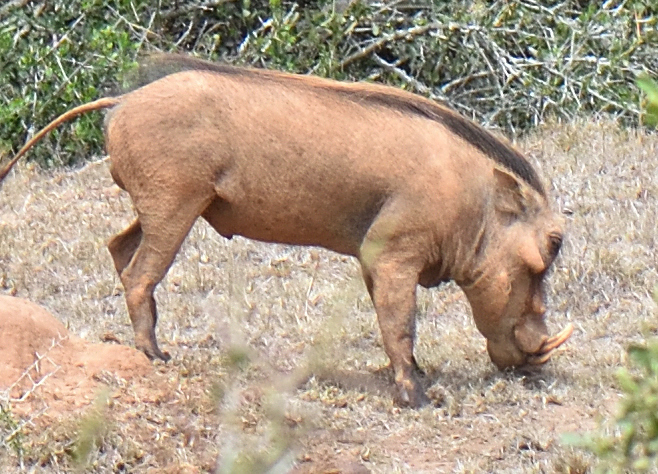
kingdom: Animalia
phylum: Chordata
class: Mammalia
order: Artiodactyla
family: Suidae
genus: Phacochoerus
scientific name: Phacochoerus africanus
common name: Common warthog
